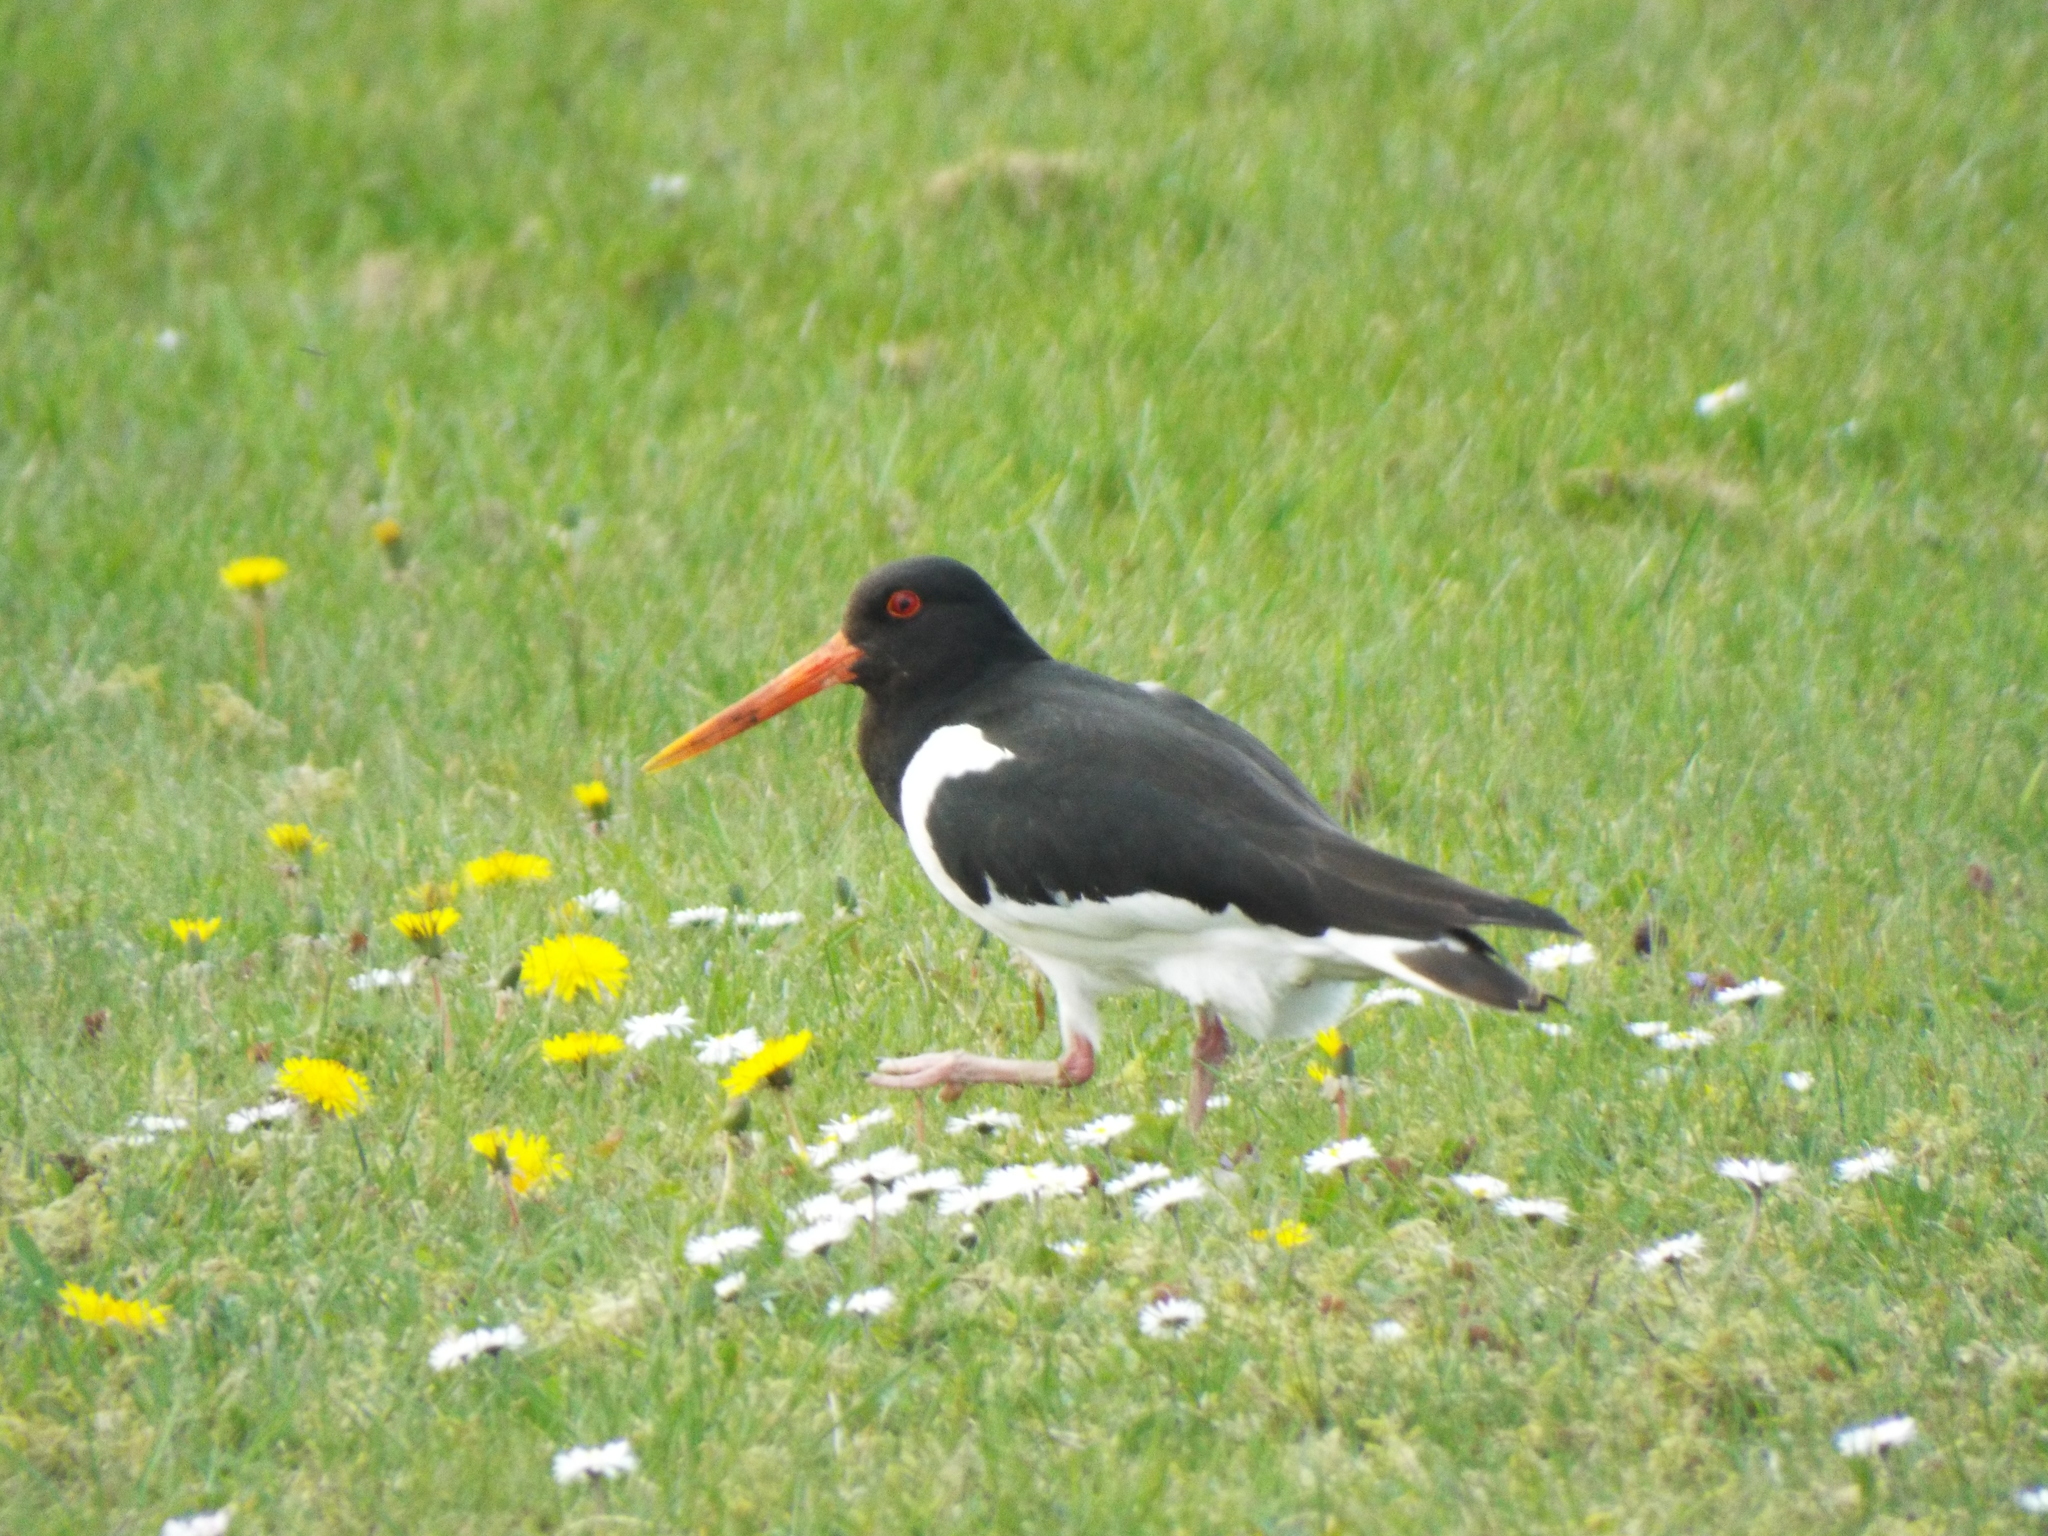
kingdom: Animalia
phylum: Chordata
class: Aves
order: Charadriiformes
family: Haematopodidae
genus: Haematopus
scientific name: Haematopus ostralegus
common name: Eurasian oystercatcher
